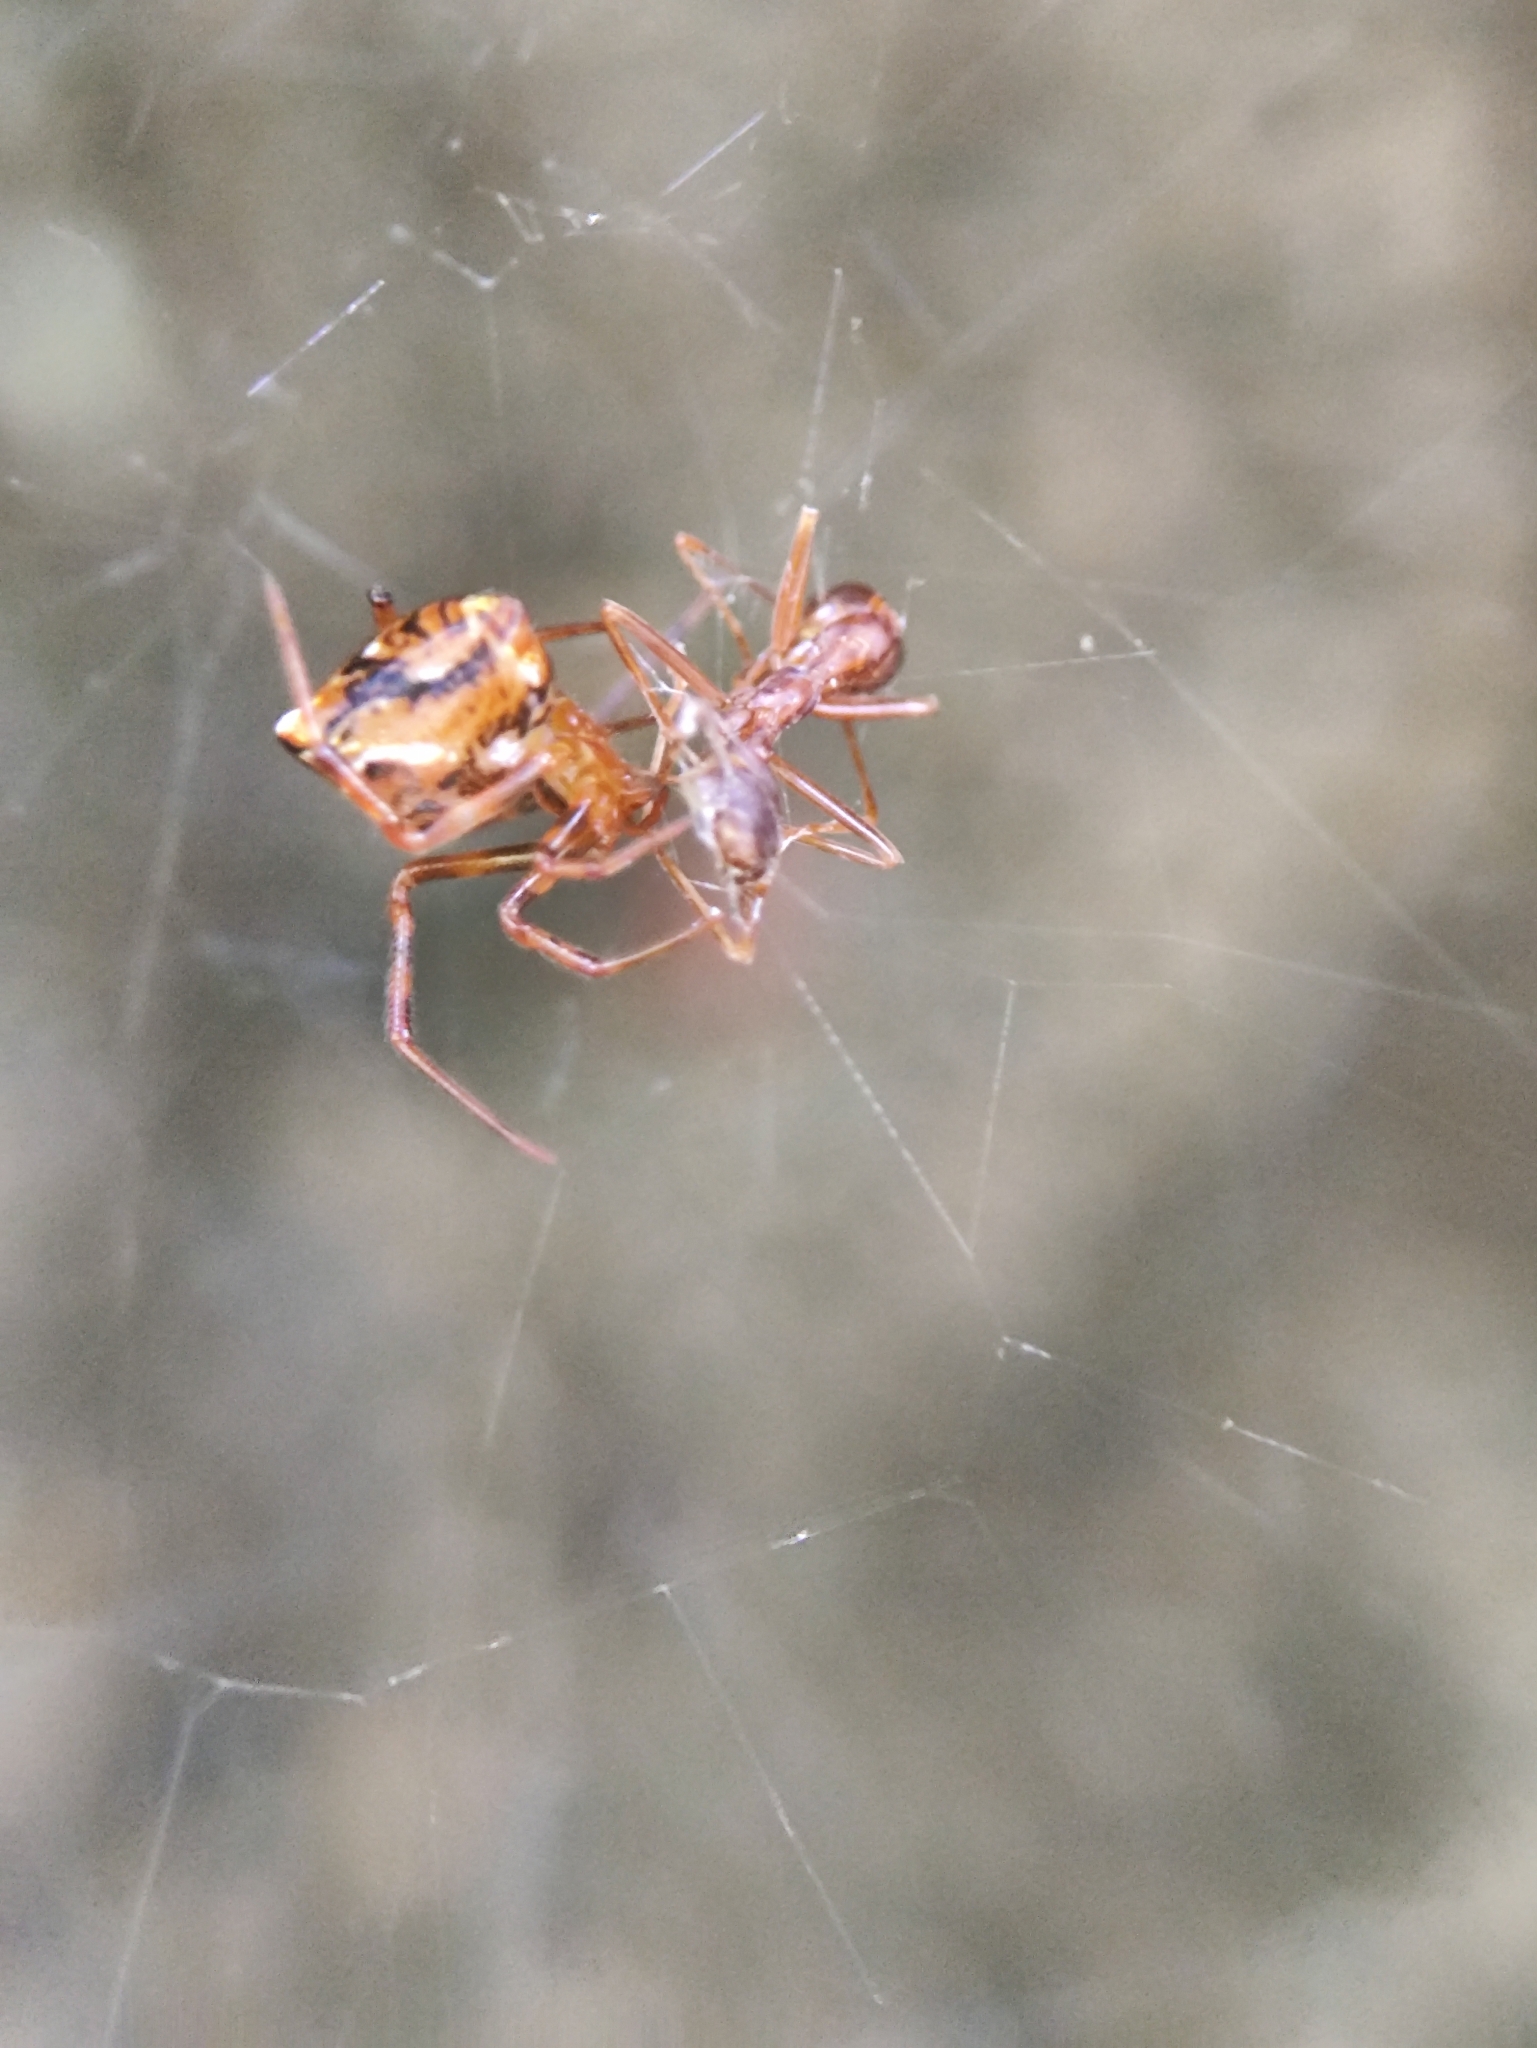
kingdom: Animalia
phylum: Arthropoda
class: Arachnida
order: Araneae
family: Theridiidae
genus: Achaearanea
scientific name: Achaearanea durgae
